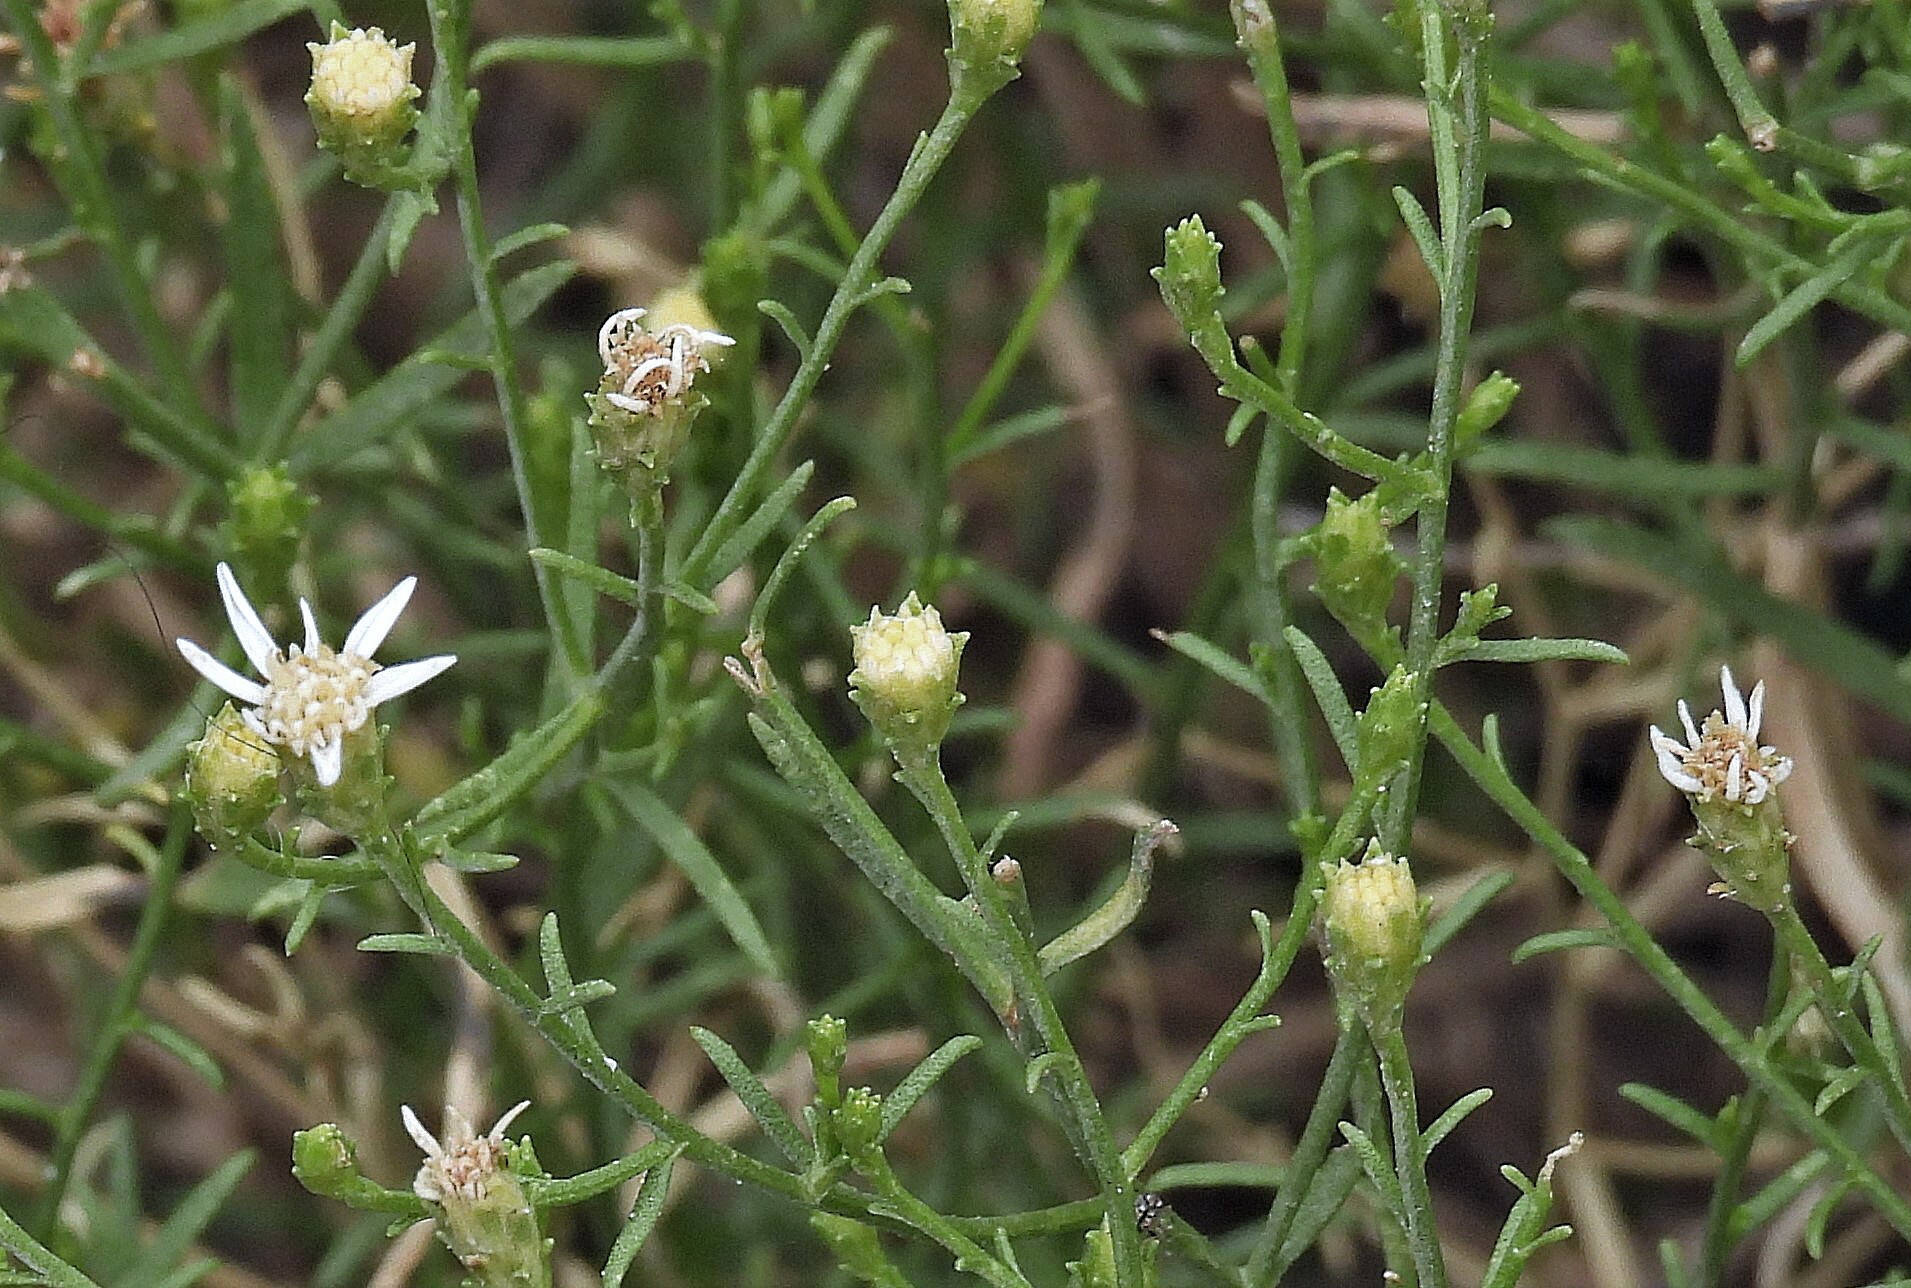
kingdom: Plantae
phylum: Tracheophyta
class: Magnoliopsida
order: Asterales
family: Asteraceae
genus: Gutierrezia
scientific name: Gutierrezia solbrigii
